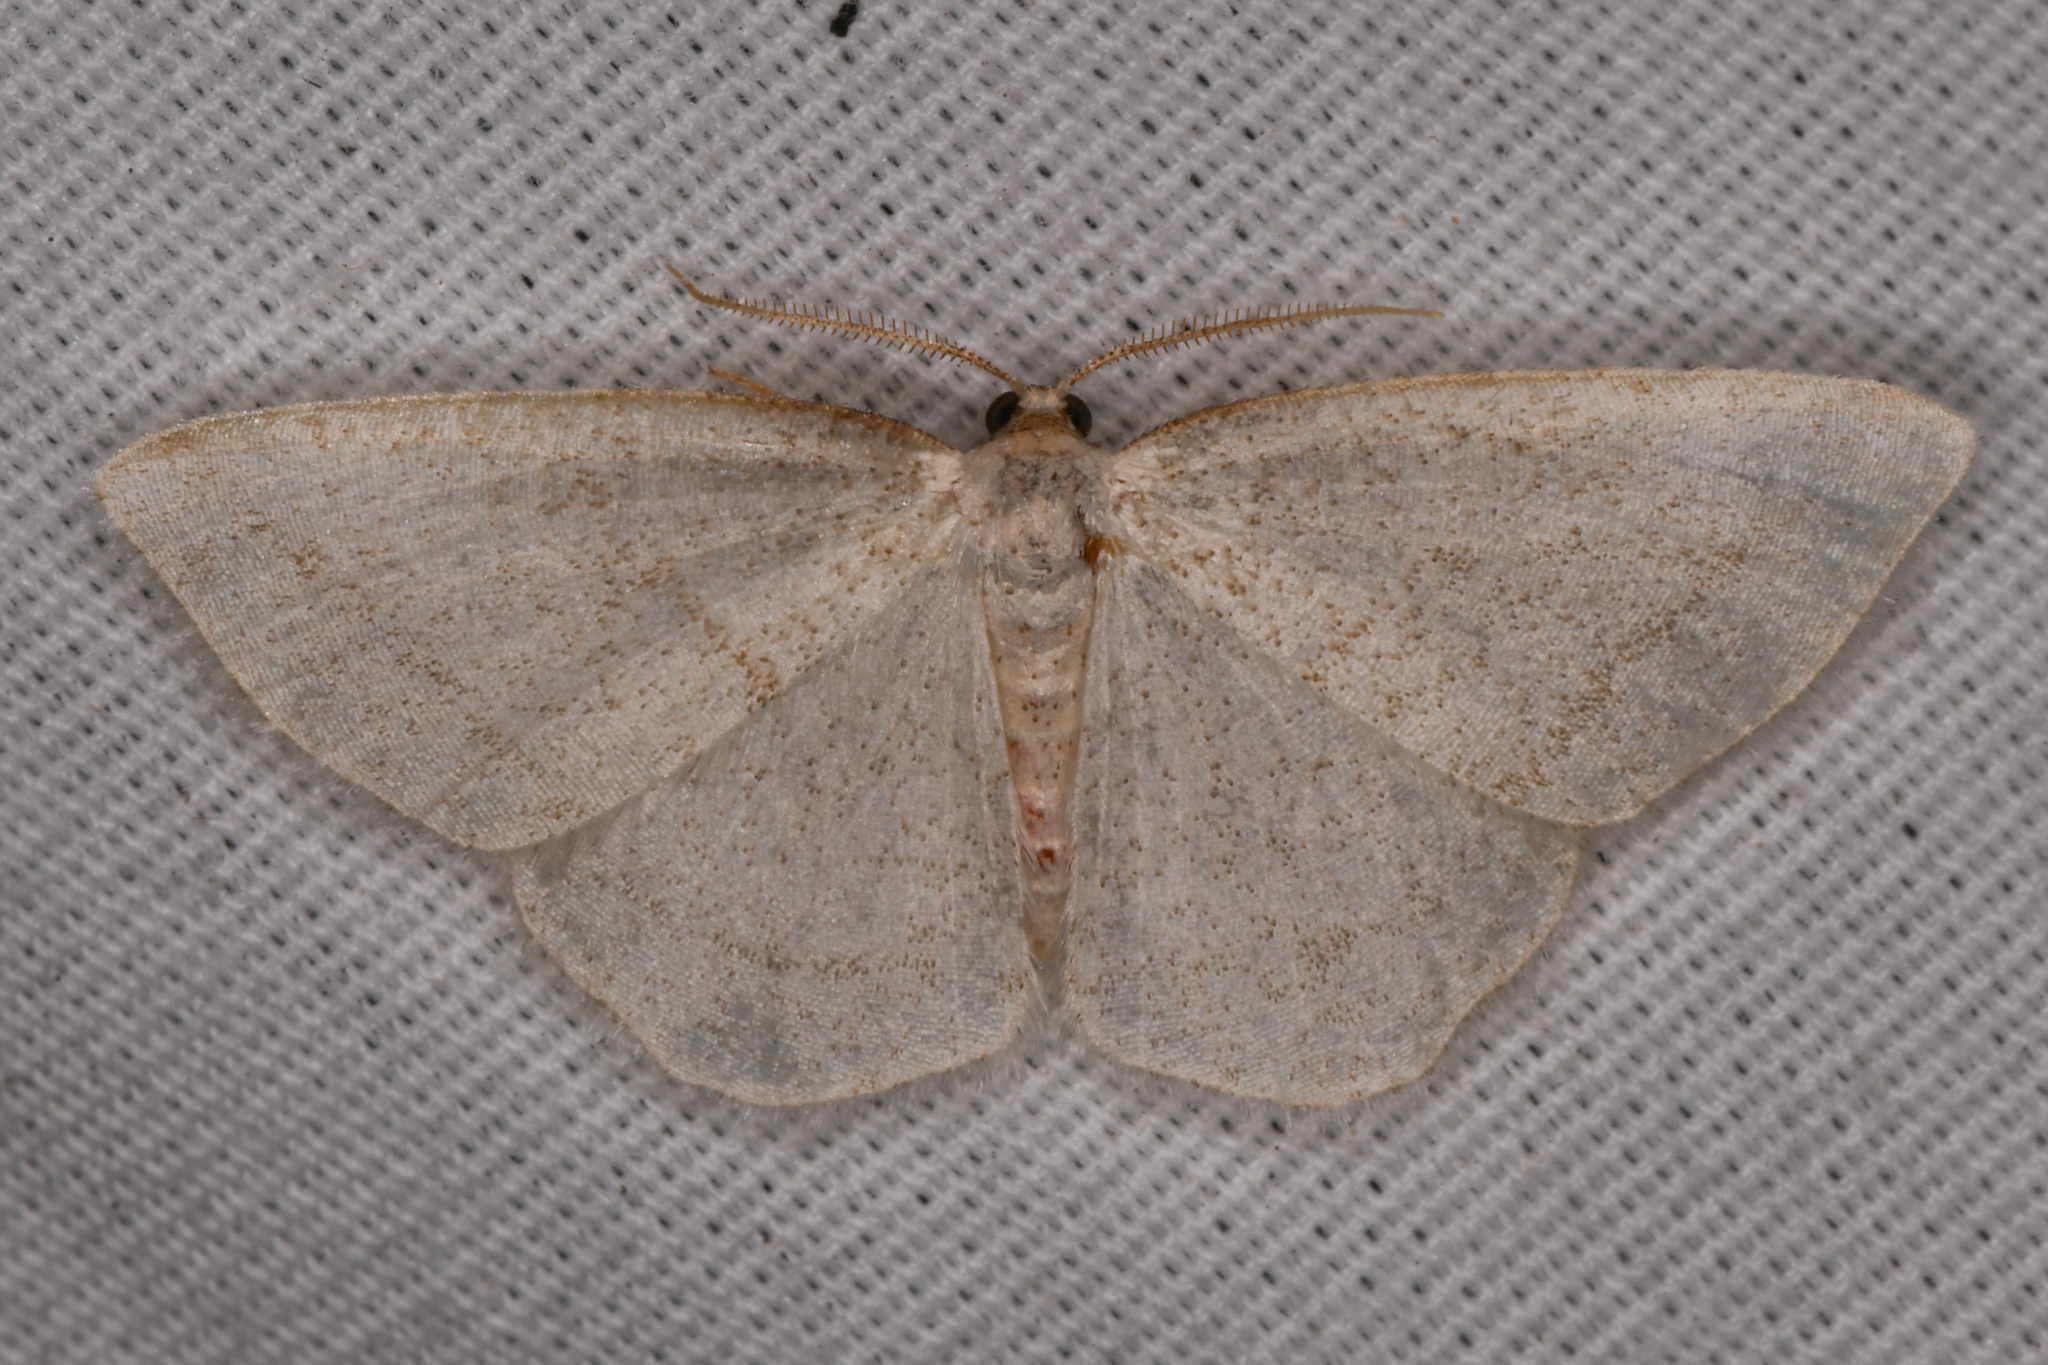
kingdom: Animalia
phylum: Arthropoda
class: Insecta
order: Lepidoptera
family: Geometridae
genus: Protitame
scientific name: Protitame subalbaria
